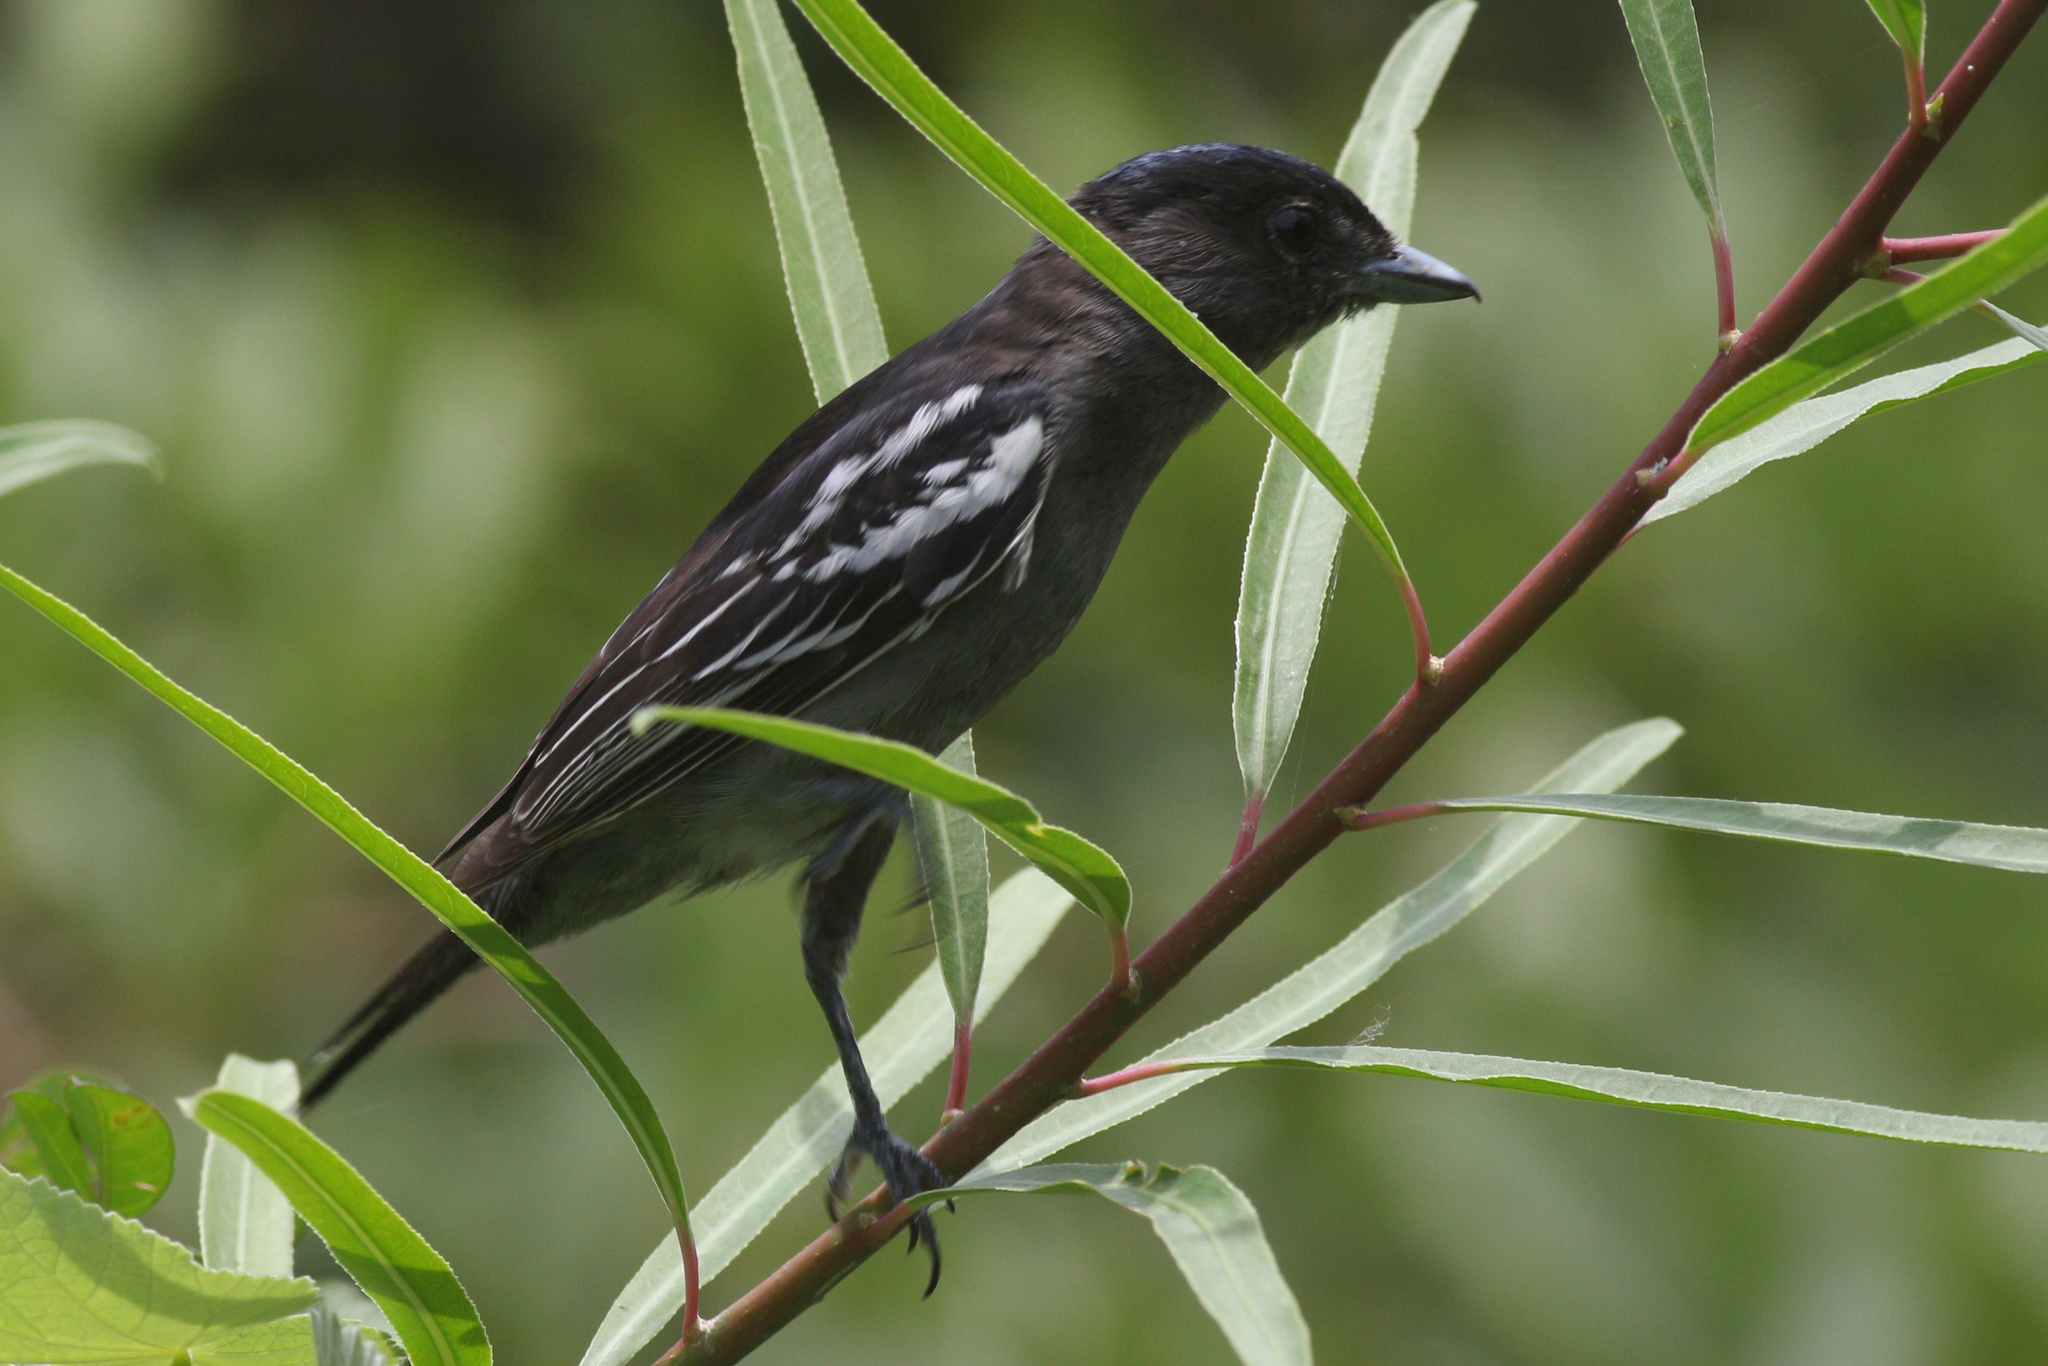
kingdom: Animalia
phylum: Chordata
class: Aves
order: Passeriformes
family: Cotingidae
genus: Pachyramphus
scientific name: Pachyramphus polychopterus
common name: White-winged becard
